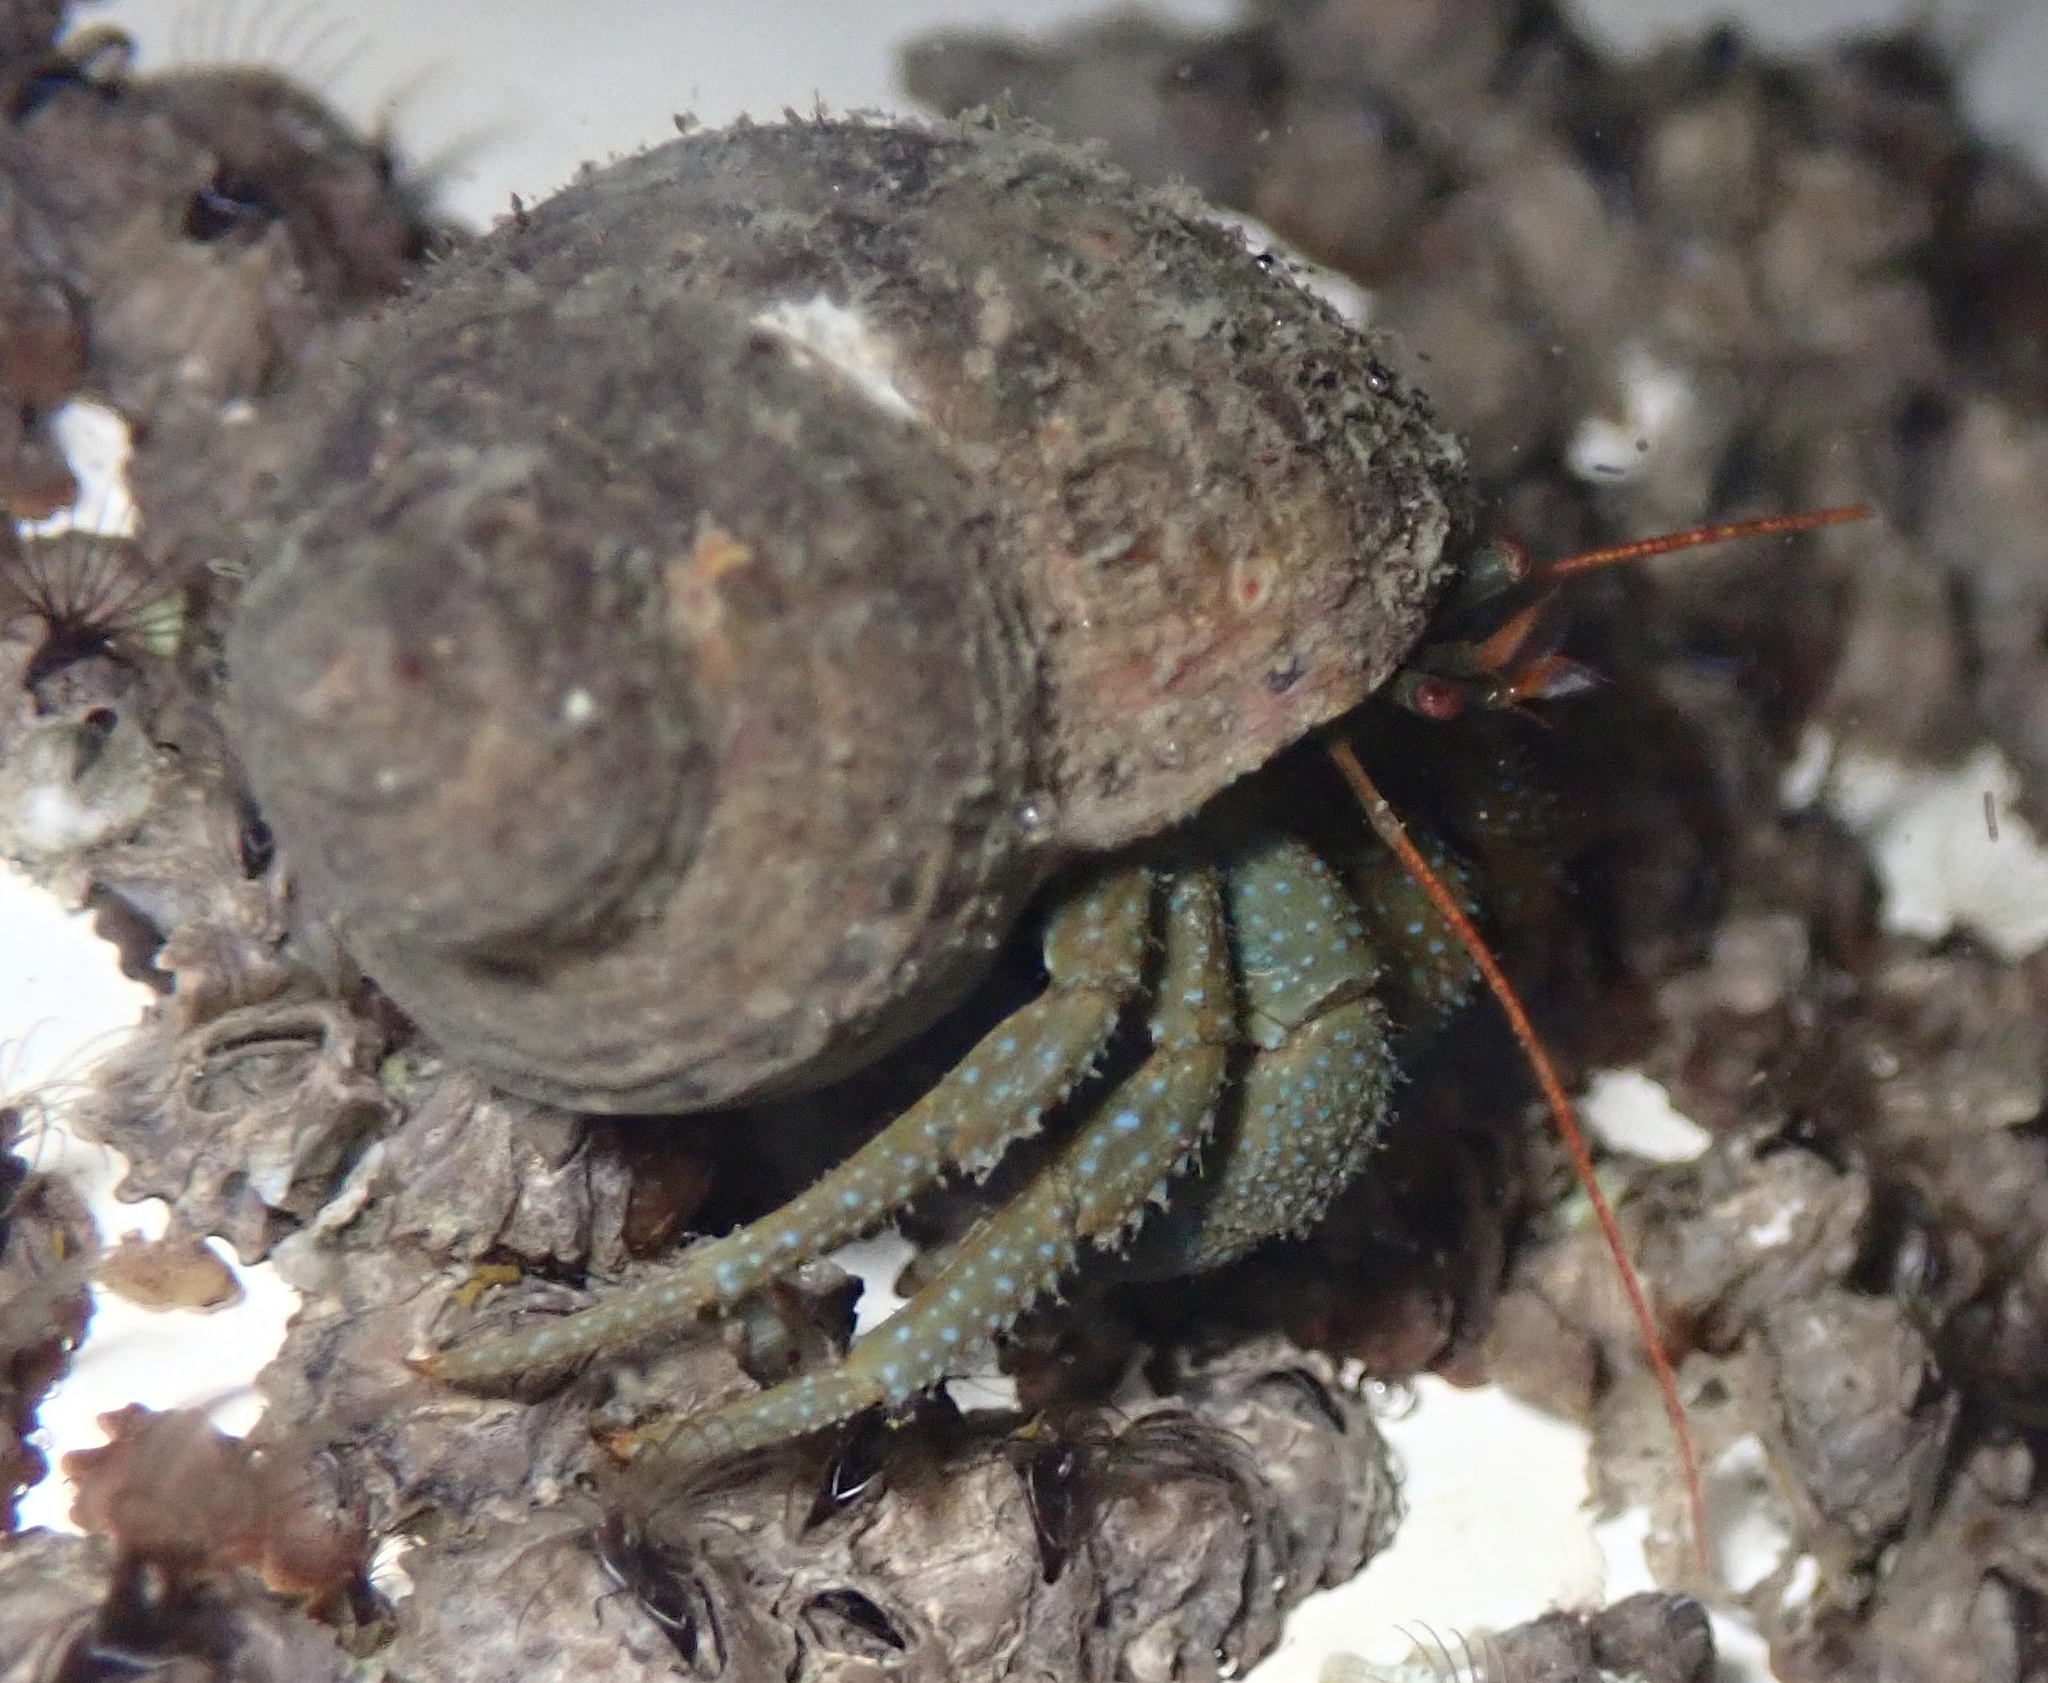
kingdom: Animalia
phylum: Arthropoda
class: Malacostraca
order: Decapoda
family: Paguridae
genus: Pagurus
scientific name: Pagurus granosimanus
